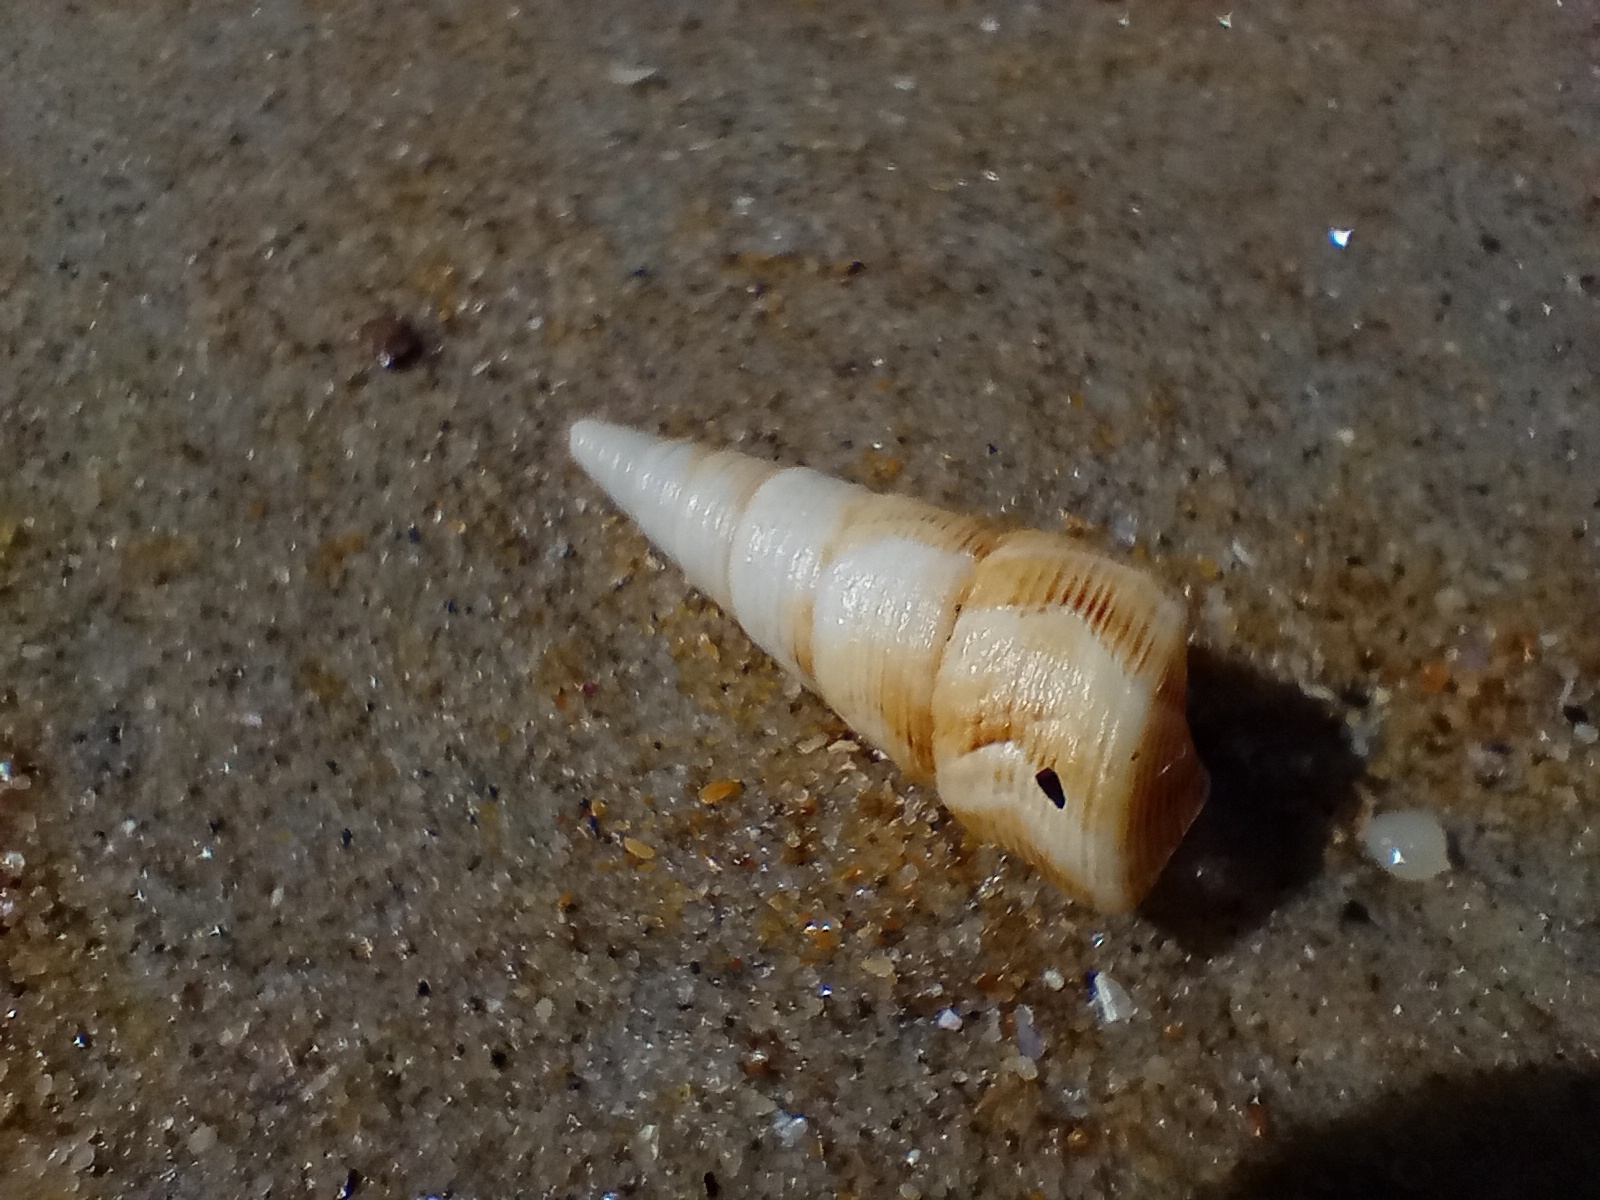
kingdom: Animalia
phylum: Mollusca
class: Gastropoda
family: Turritellidae
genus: Maoricolpus
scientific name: Maoricolpus roseus
